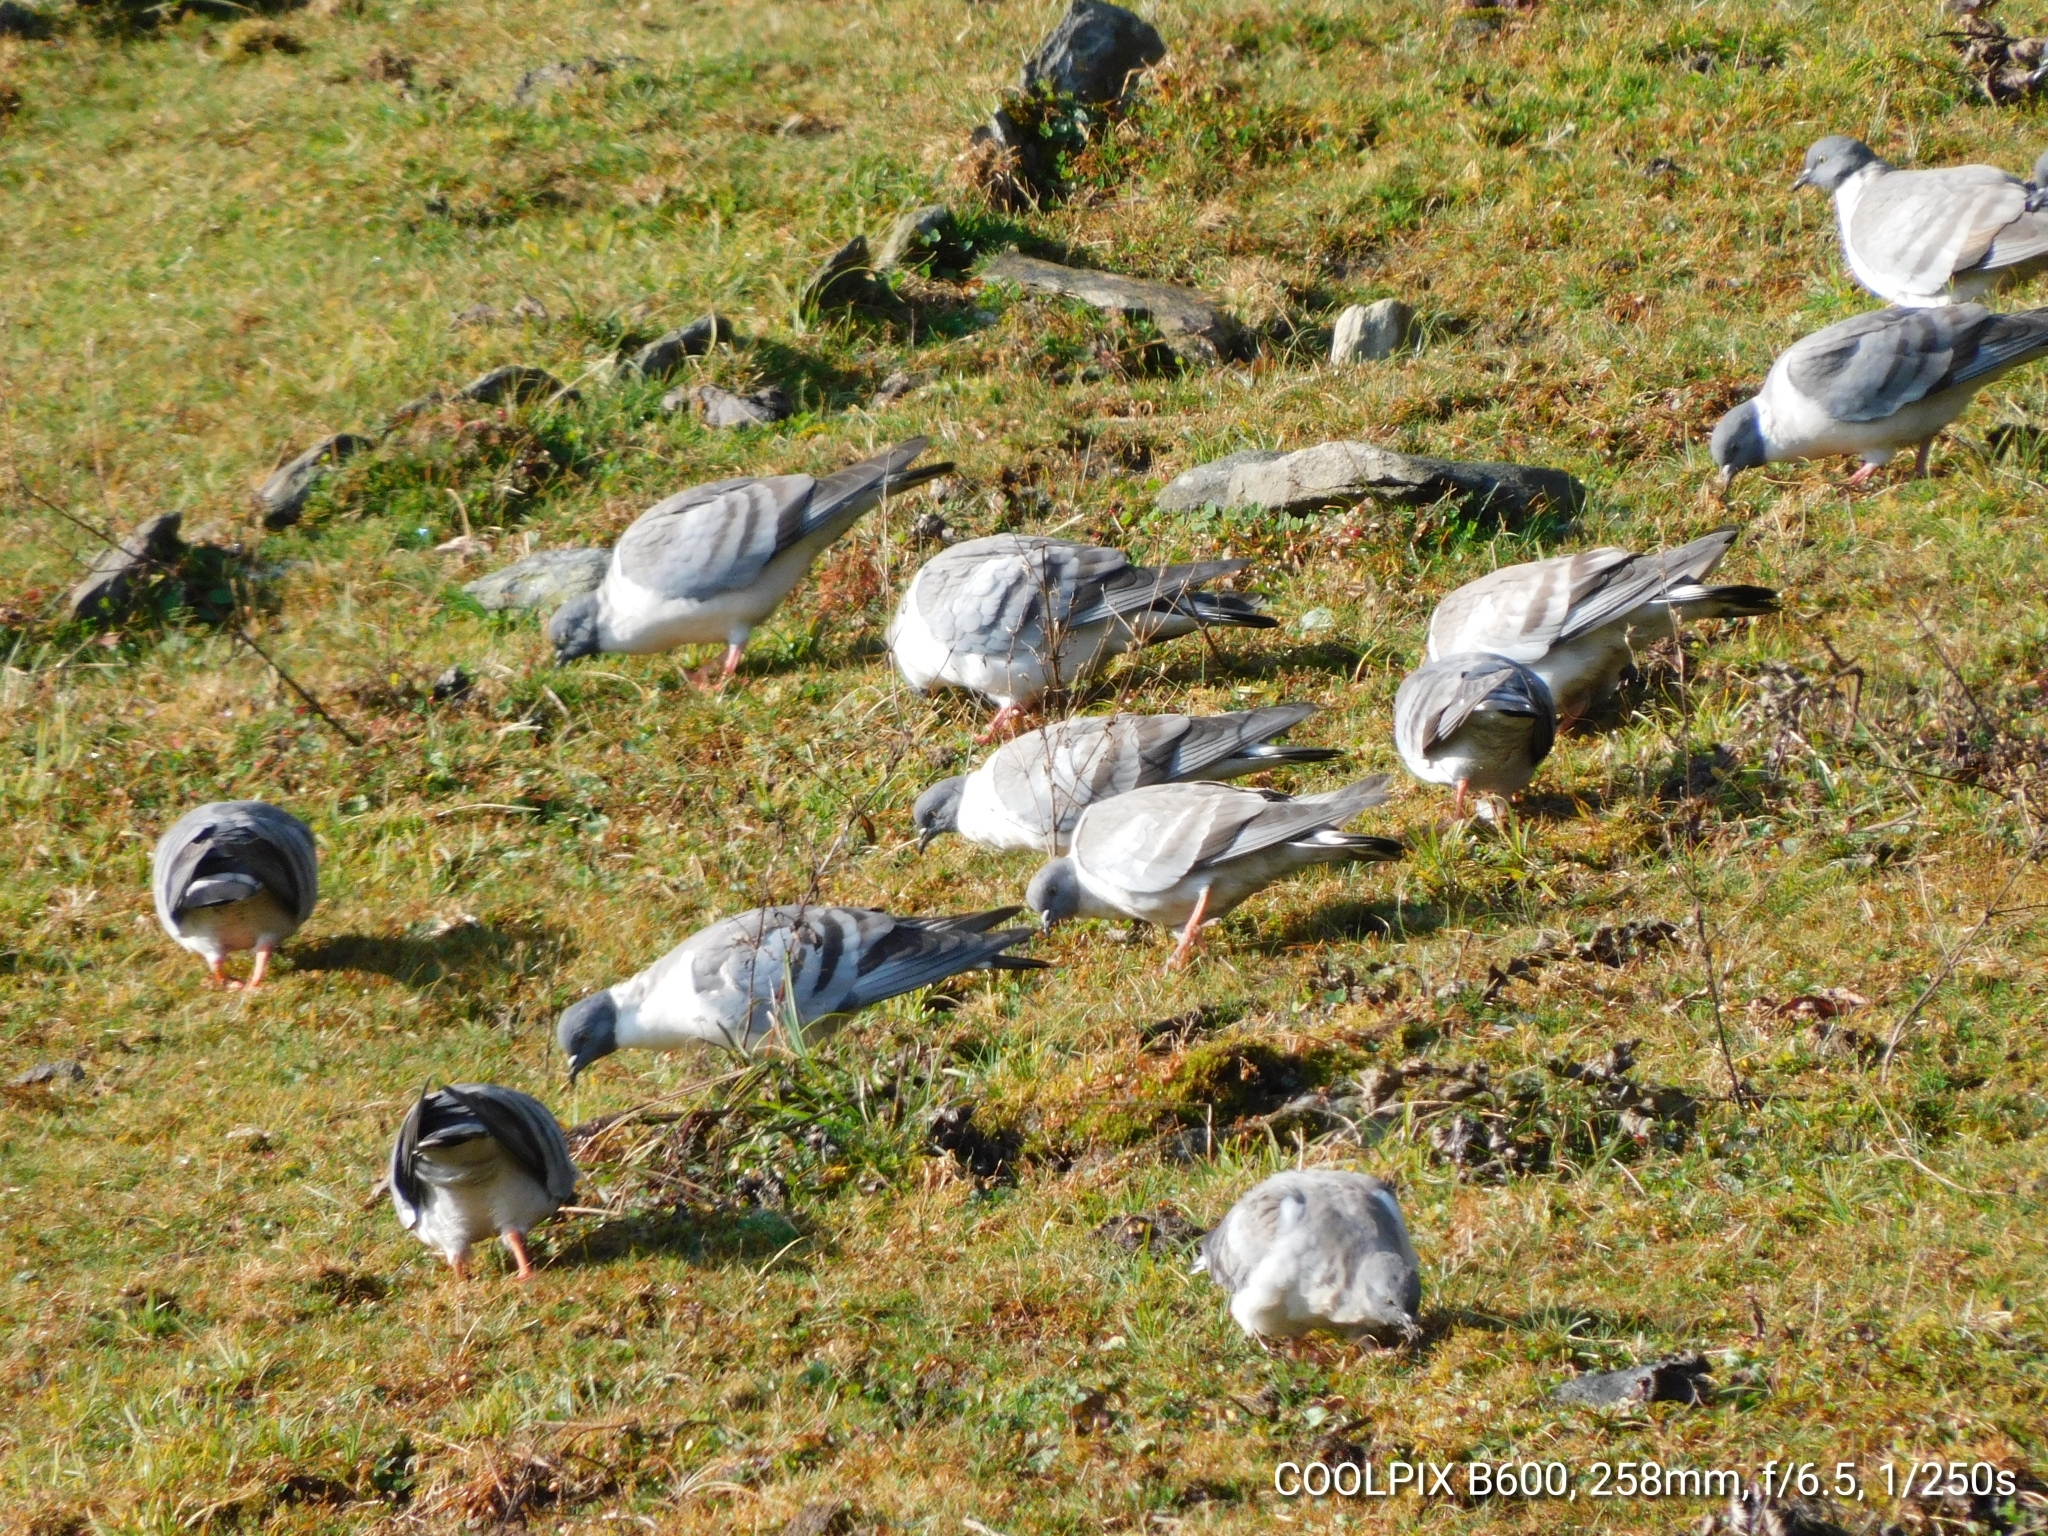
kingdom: Animalia
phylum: Chordata
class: Aves
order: Columbiformes
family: Columbidae
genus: Columba
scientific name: Columba leuconota
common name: Snow pigeon
